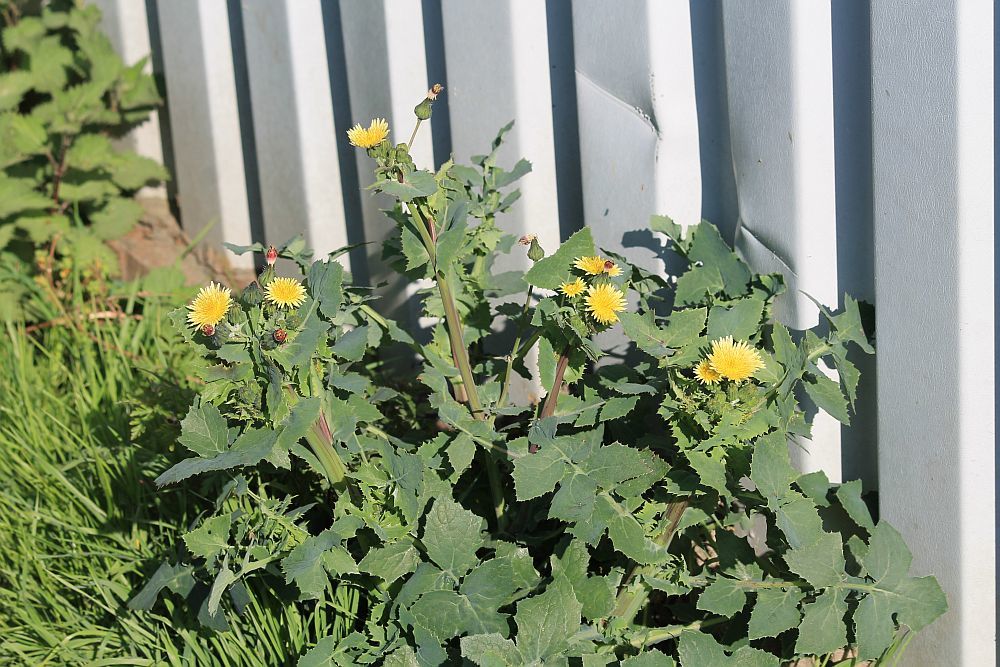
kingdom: Plantae
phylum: Tracheophyta
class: Magnoliopsida
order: Asterales
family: Asteraceae
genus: Sonchus
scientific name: Sonchus oleraceus
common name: Common sowthistle
